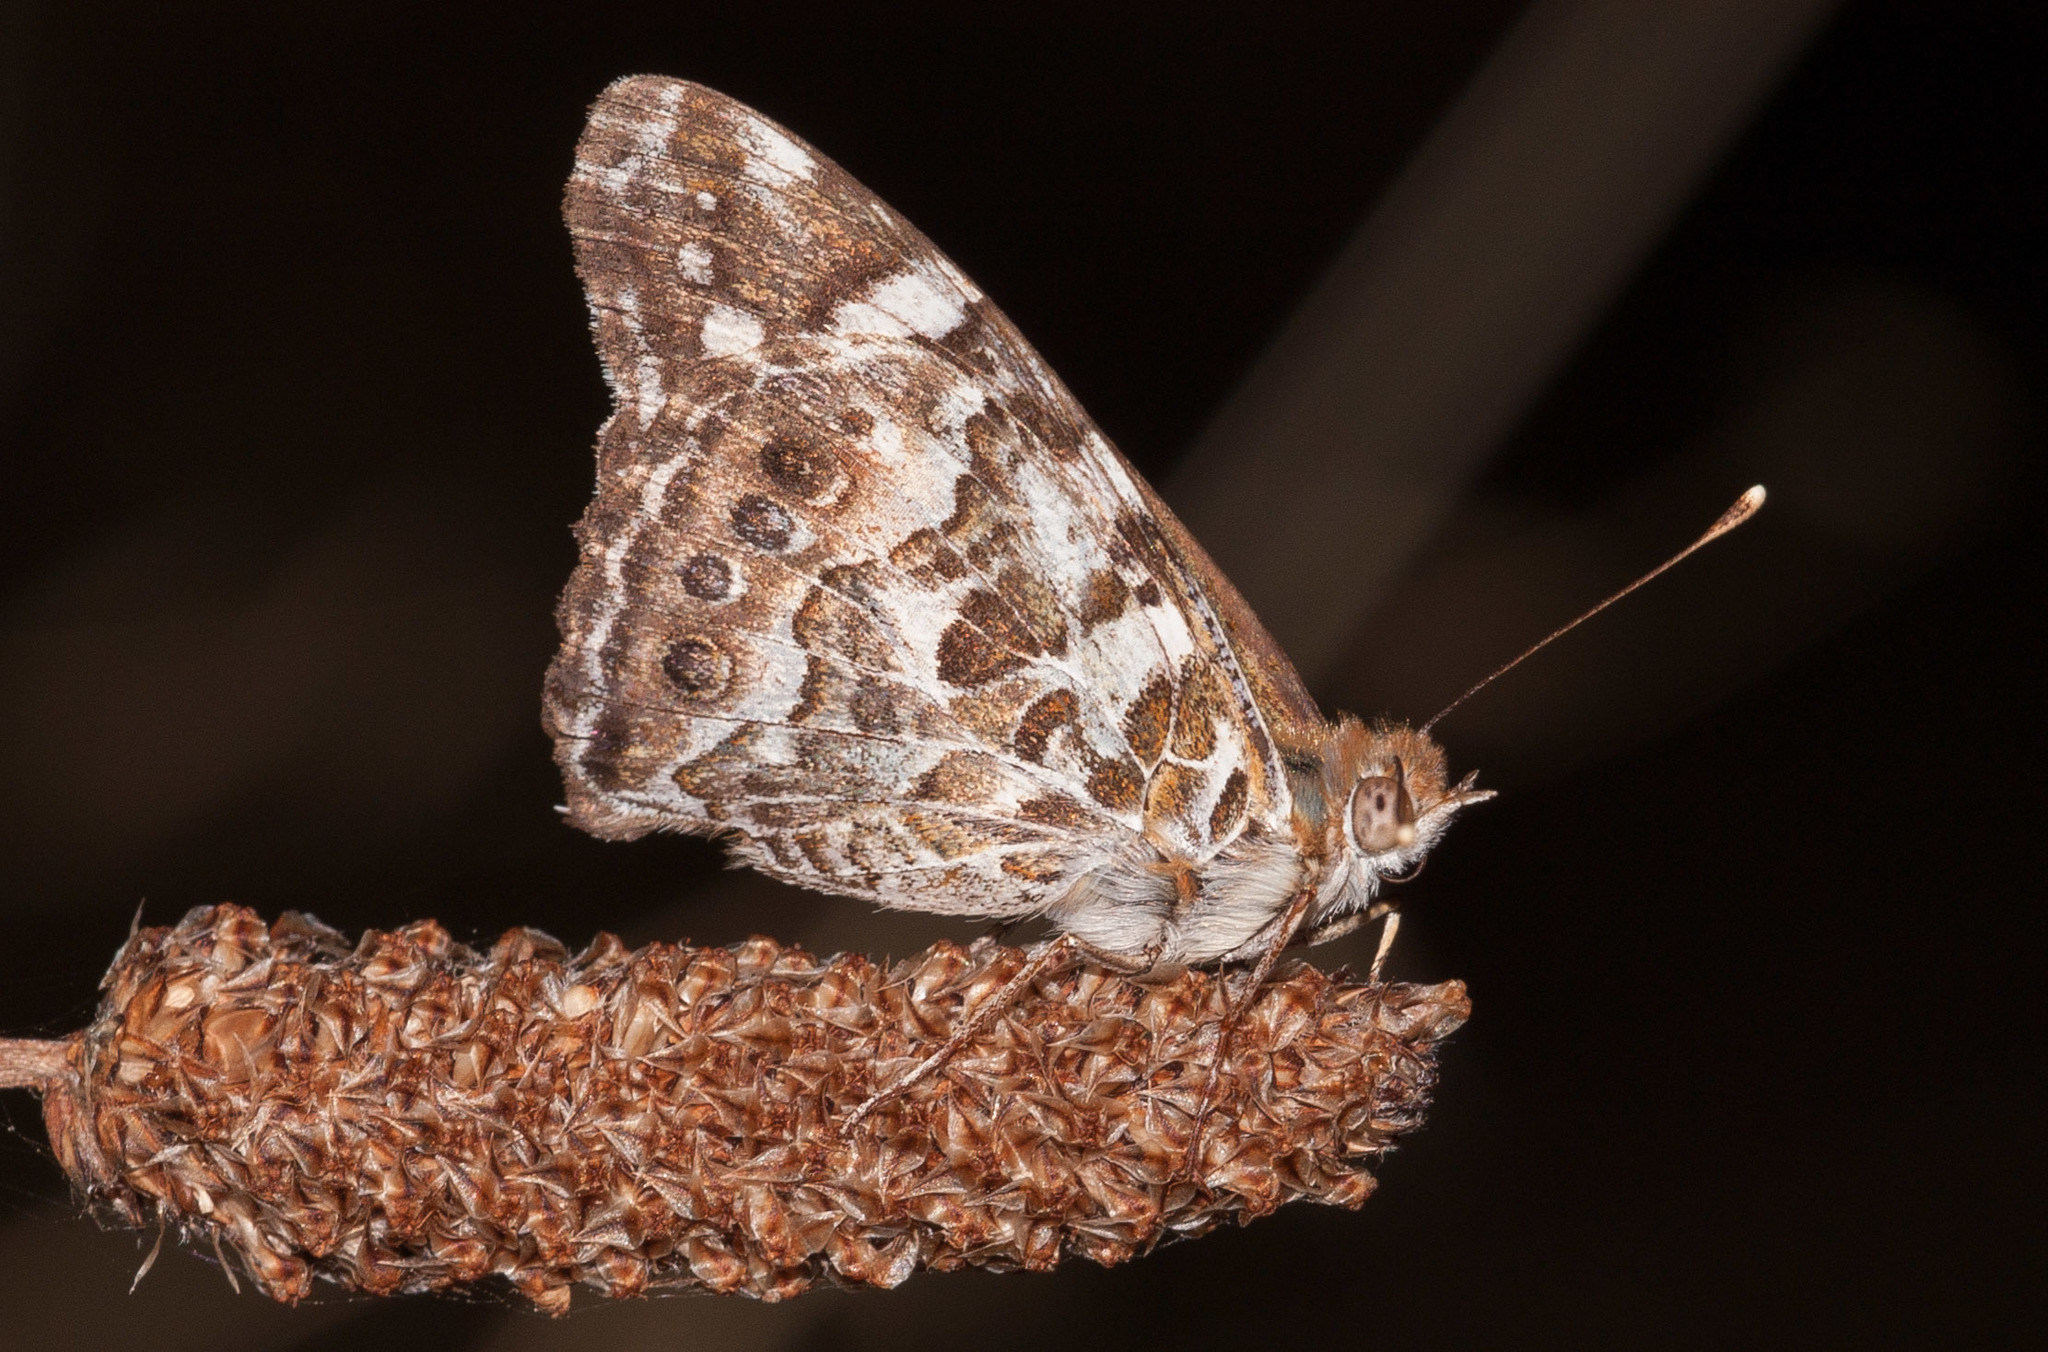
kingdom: Animalia
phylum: Arthropoda
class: Insecta
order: Lepidoptera
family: Nymphalidae
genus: Vanessa
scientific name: Vanessa kershawi
